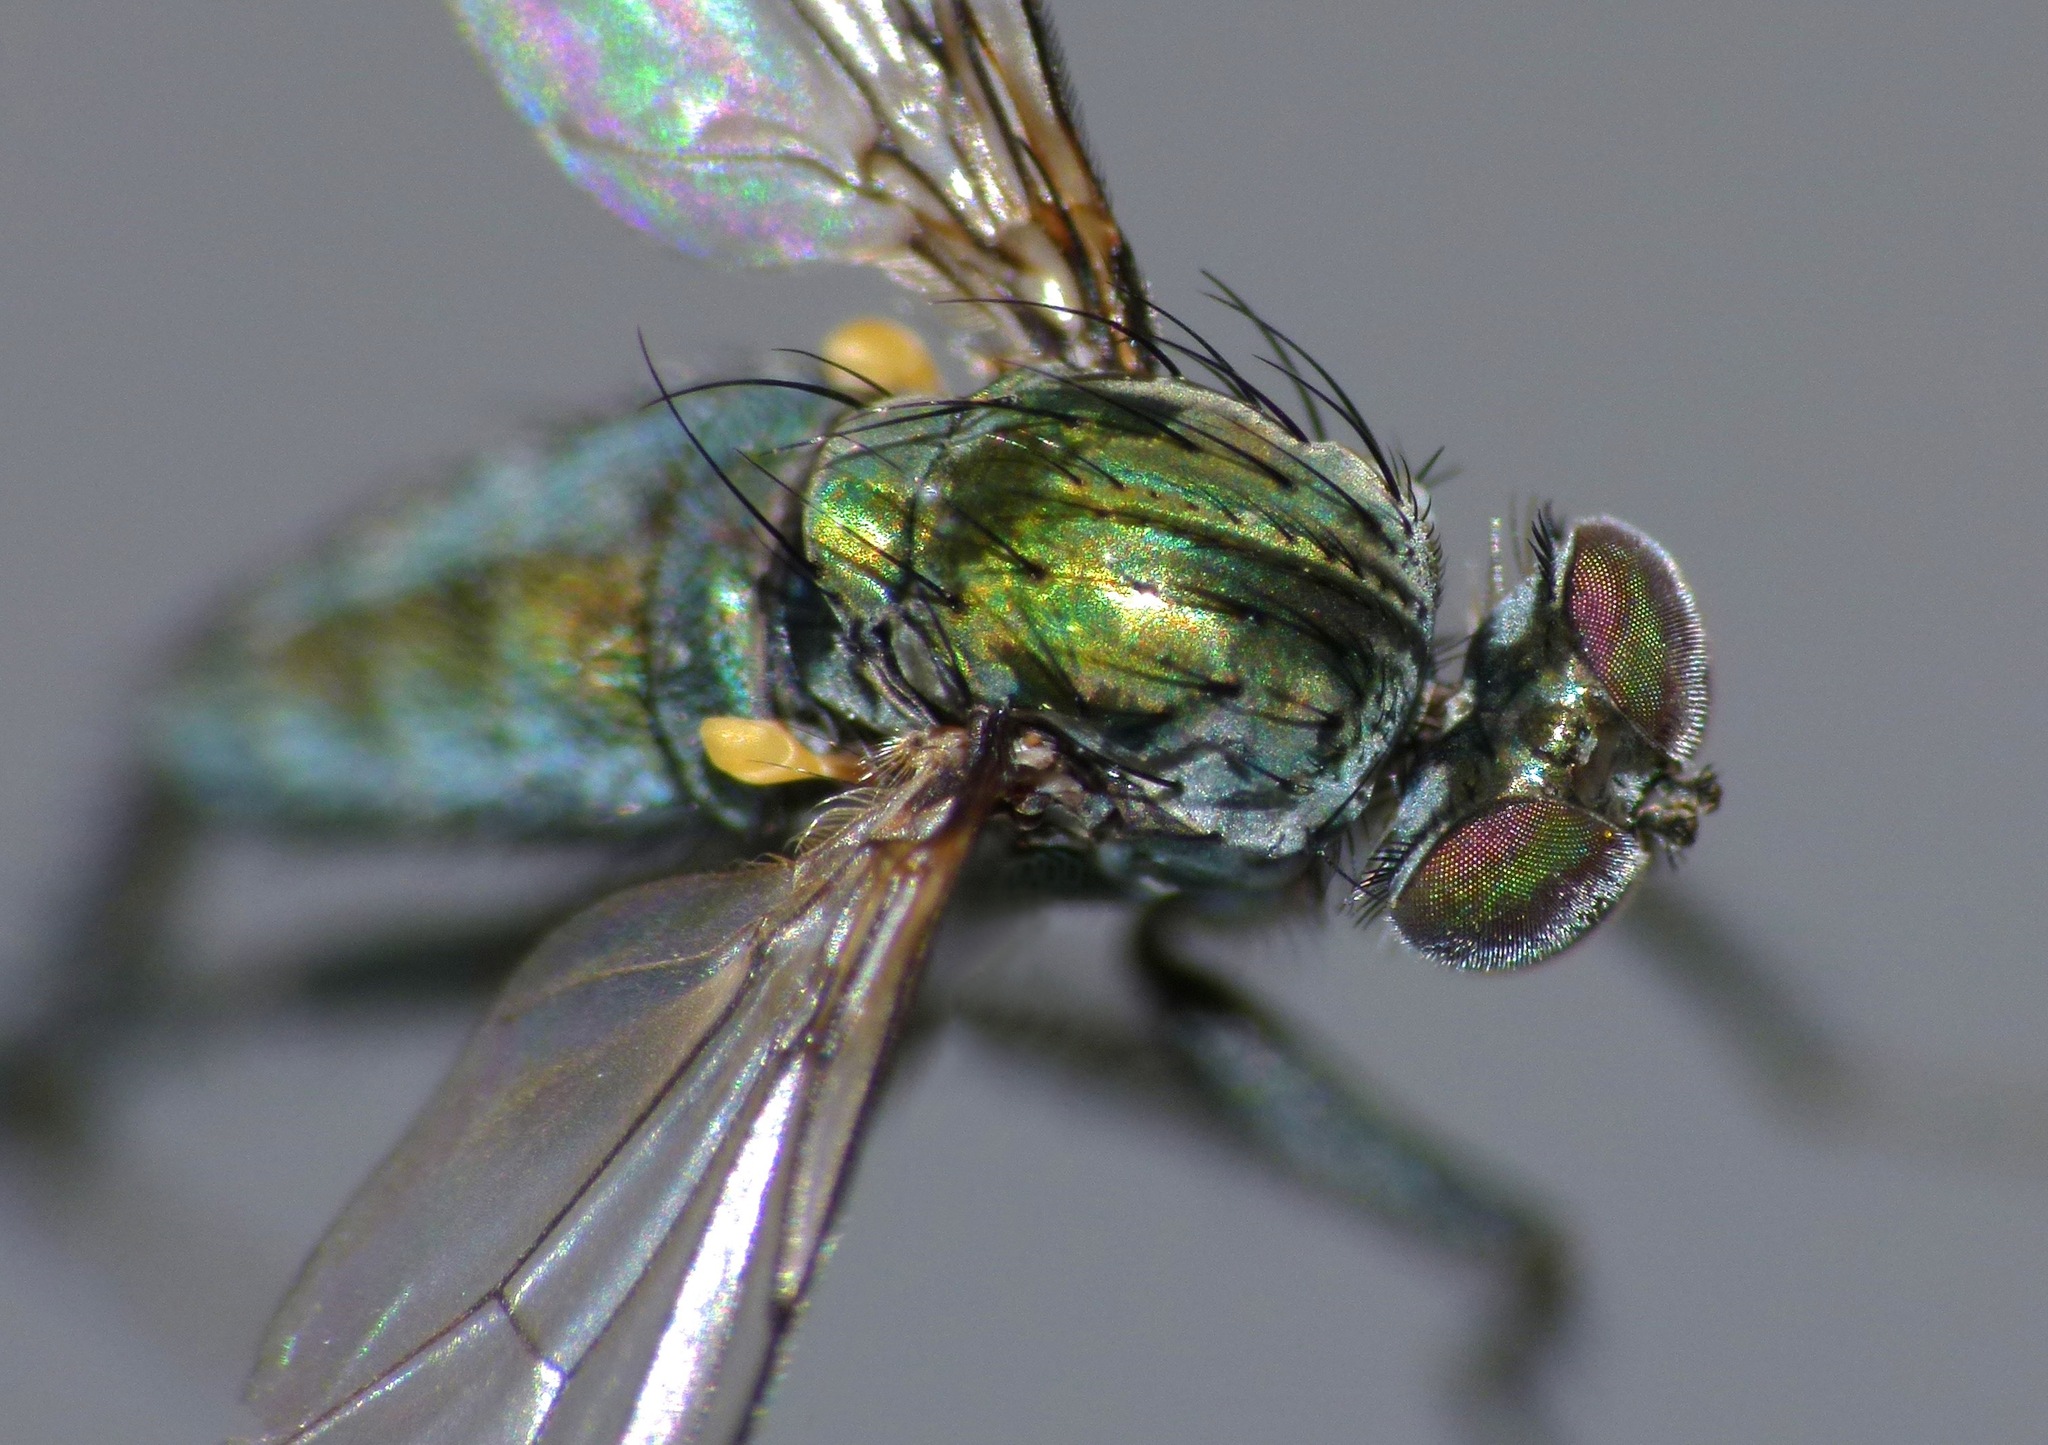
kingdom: Animalia
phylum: Arthropoda
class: Insecta
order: Diptera
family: Dolichopodidae
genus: Diaphorus
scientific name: Diaphorus parapraestans
